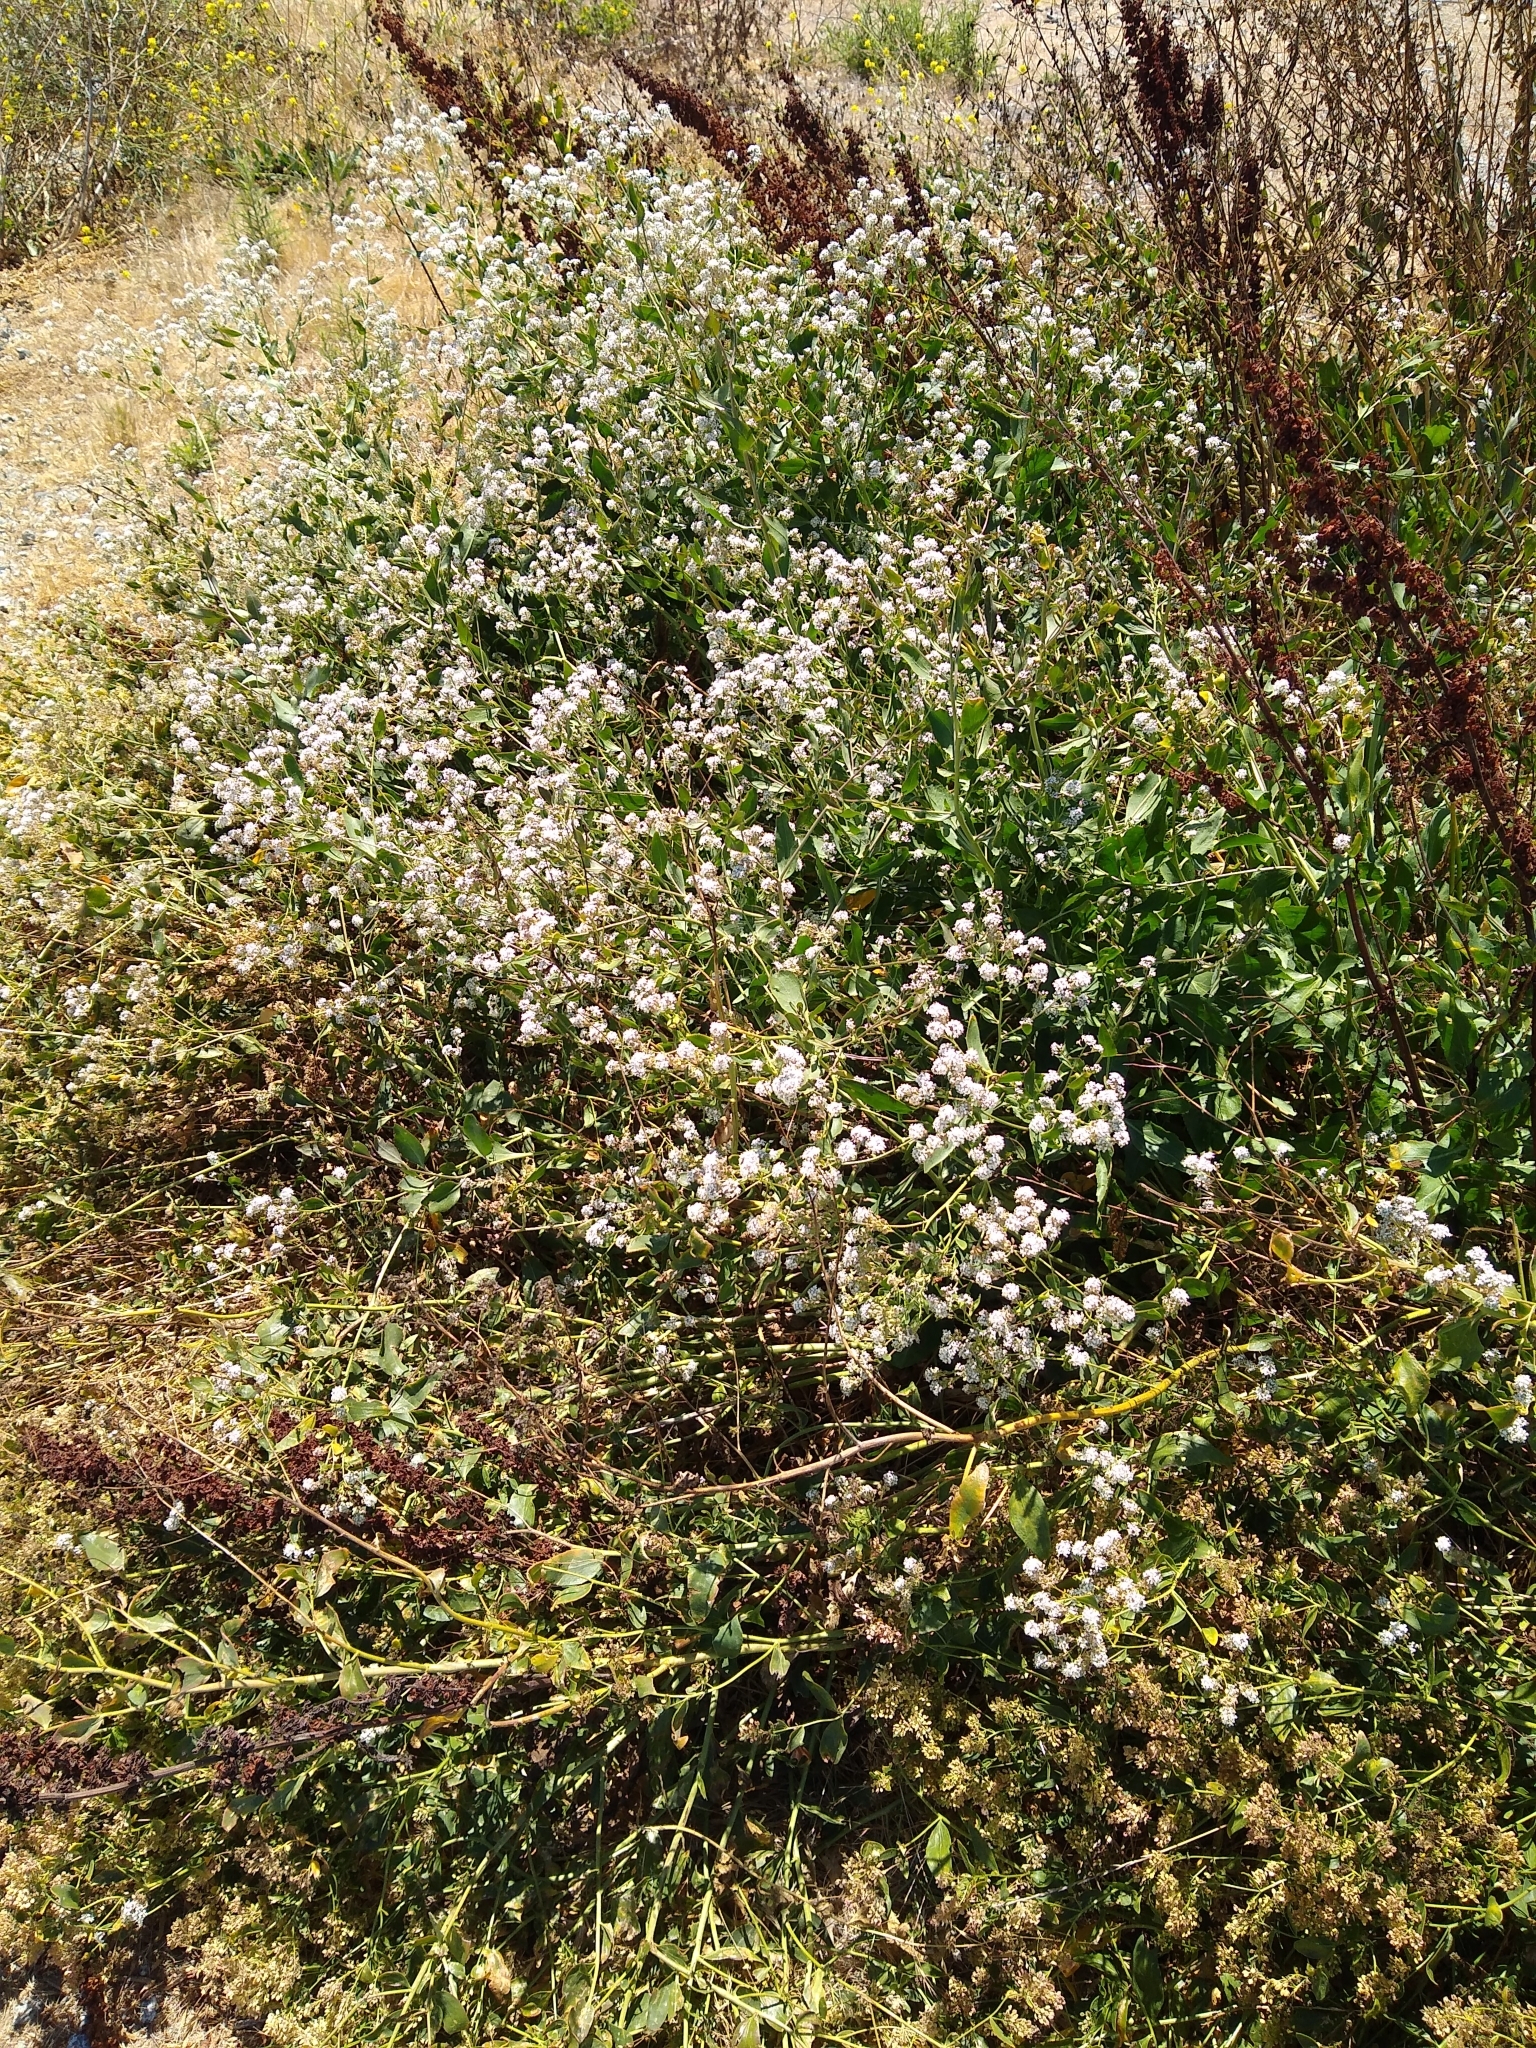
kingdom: Plantae
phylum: Tracheophyta
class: Magnoliopsida
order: Brassicales
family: Brassicaceae
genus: Lepidium
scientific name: Lepidium latifolium
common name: Dittander
